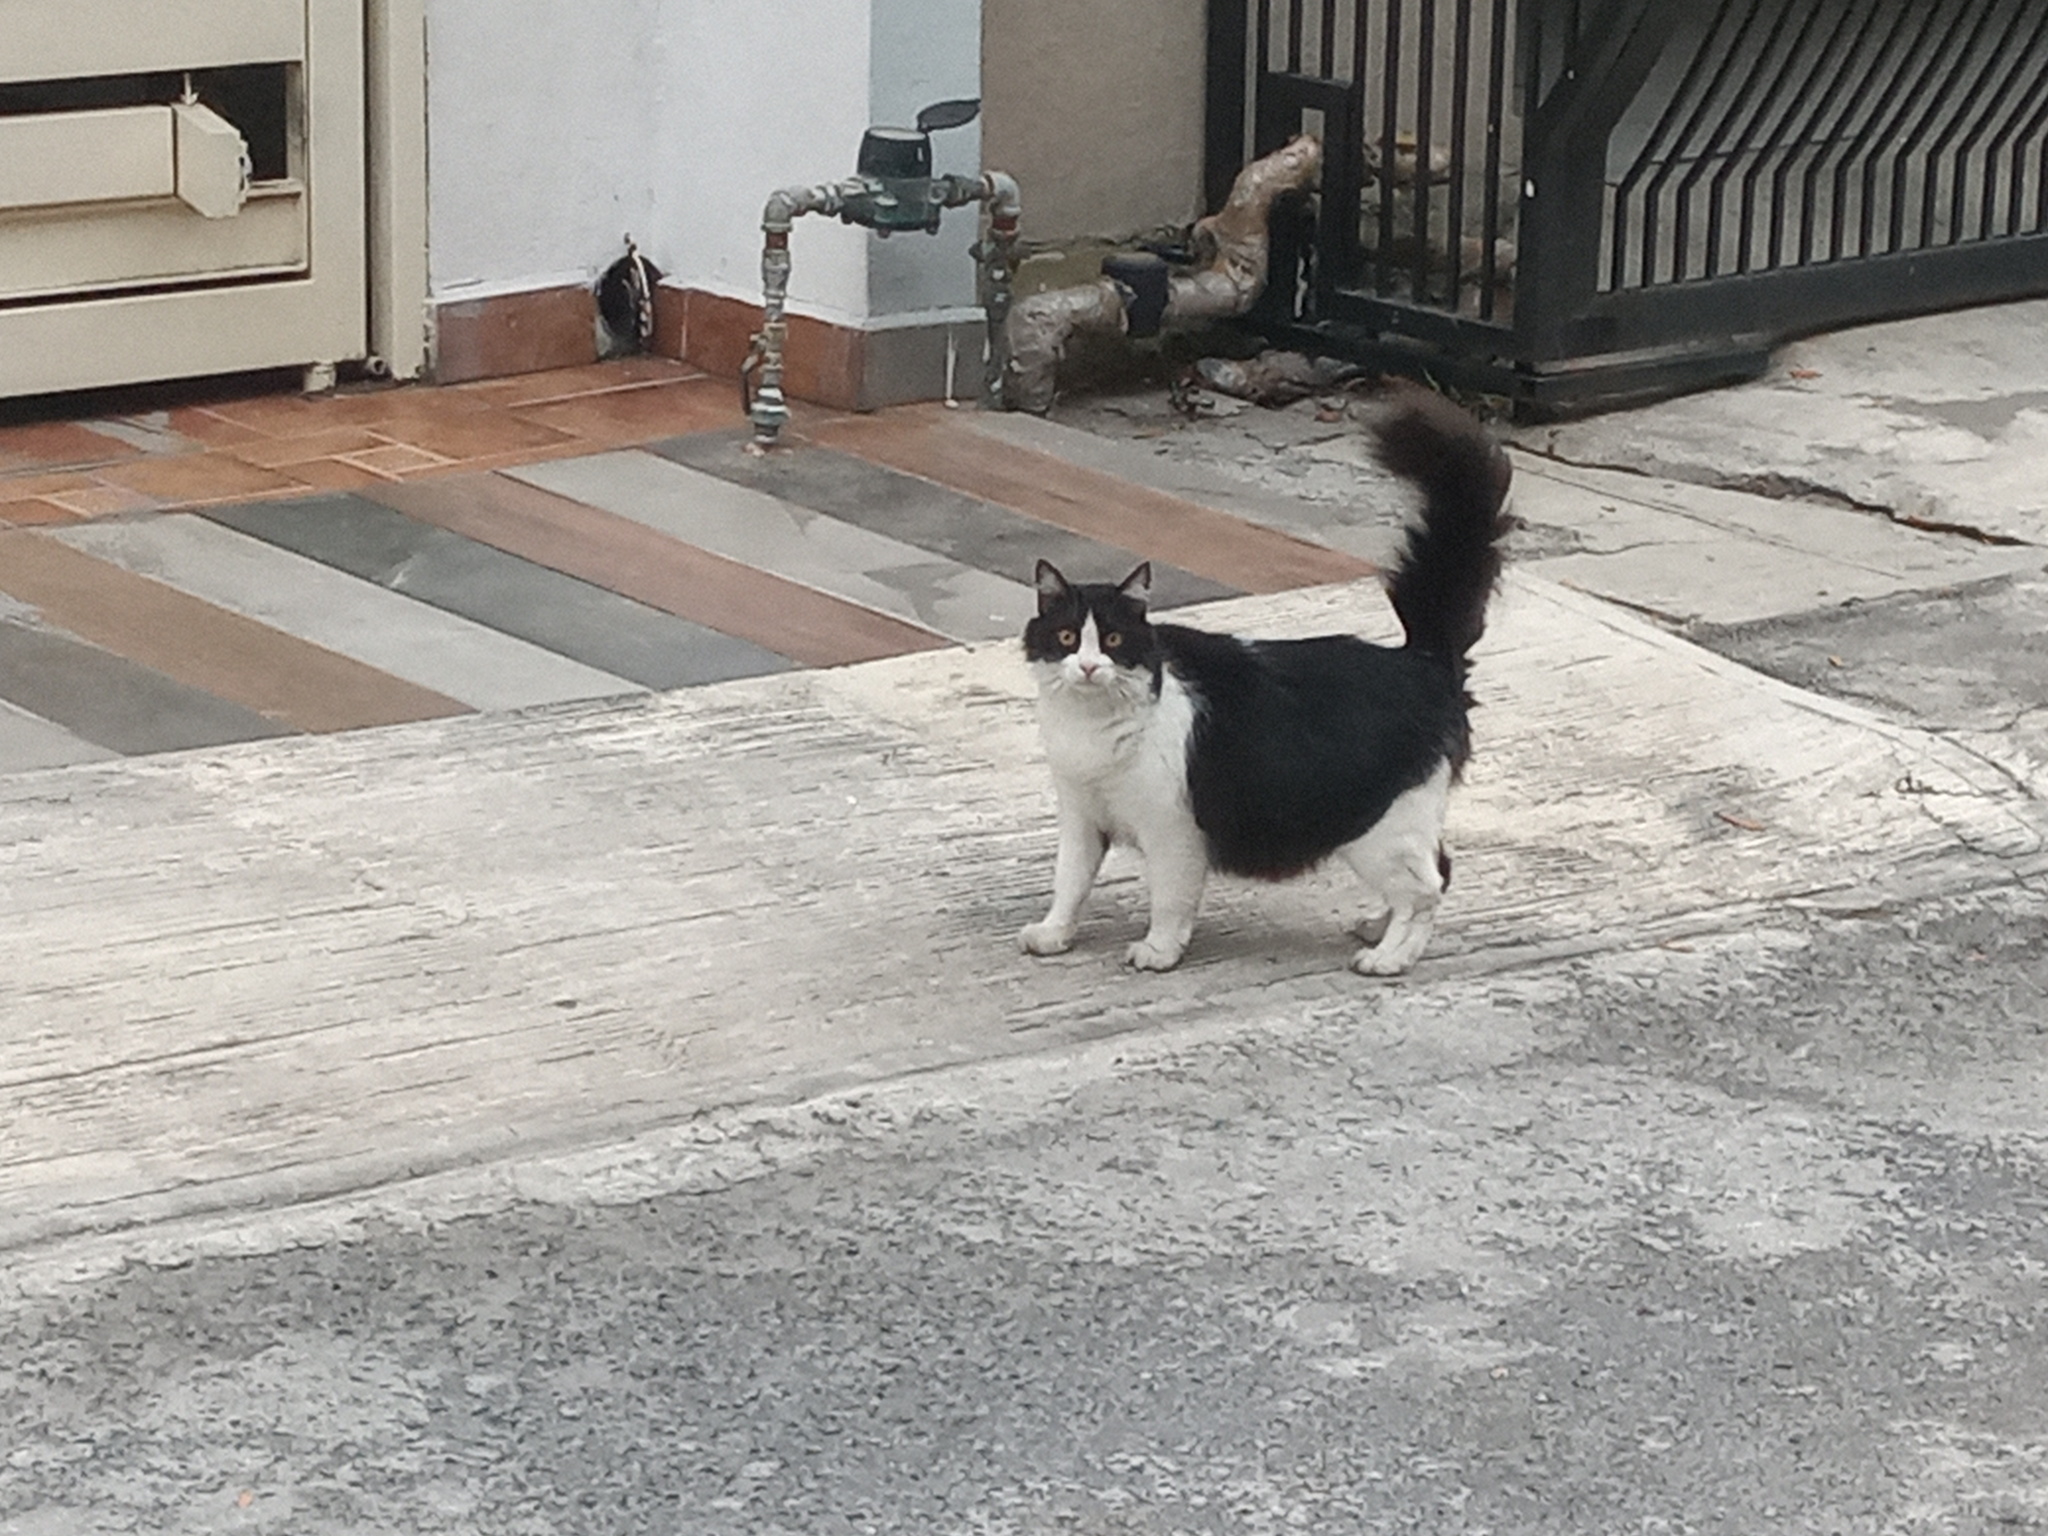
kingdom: Animalia
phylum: Chordata
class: Mammalia
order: Carnivora
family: Felidae
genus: Felis
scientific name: Felis catus
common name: Domestic cat
